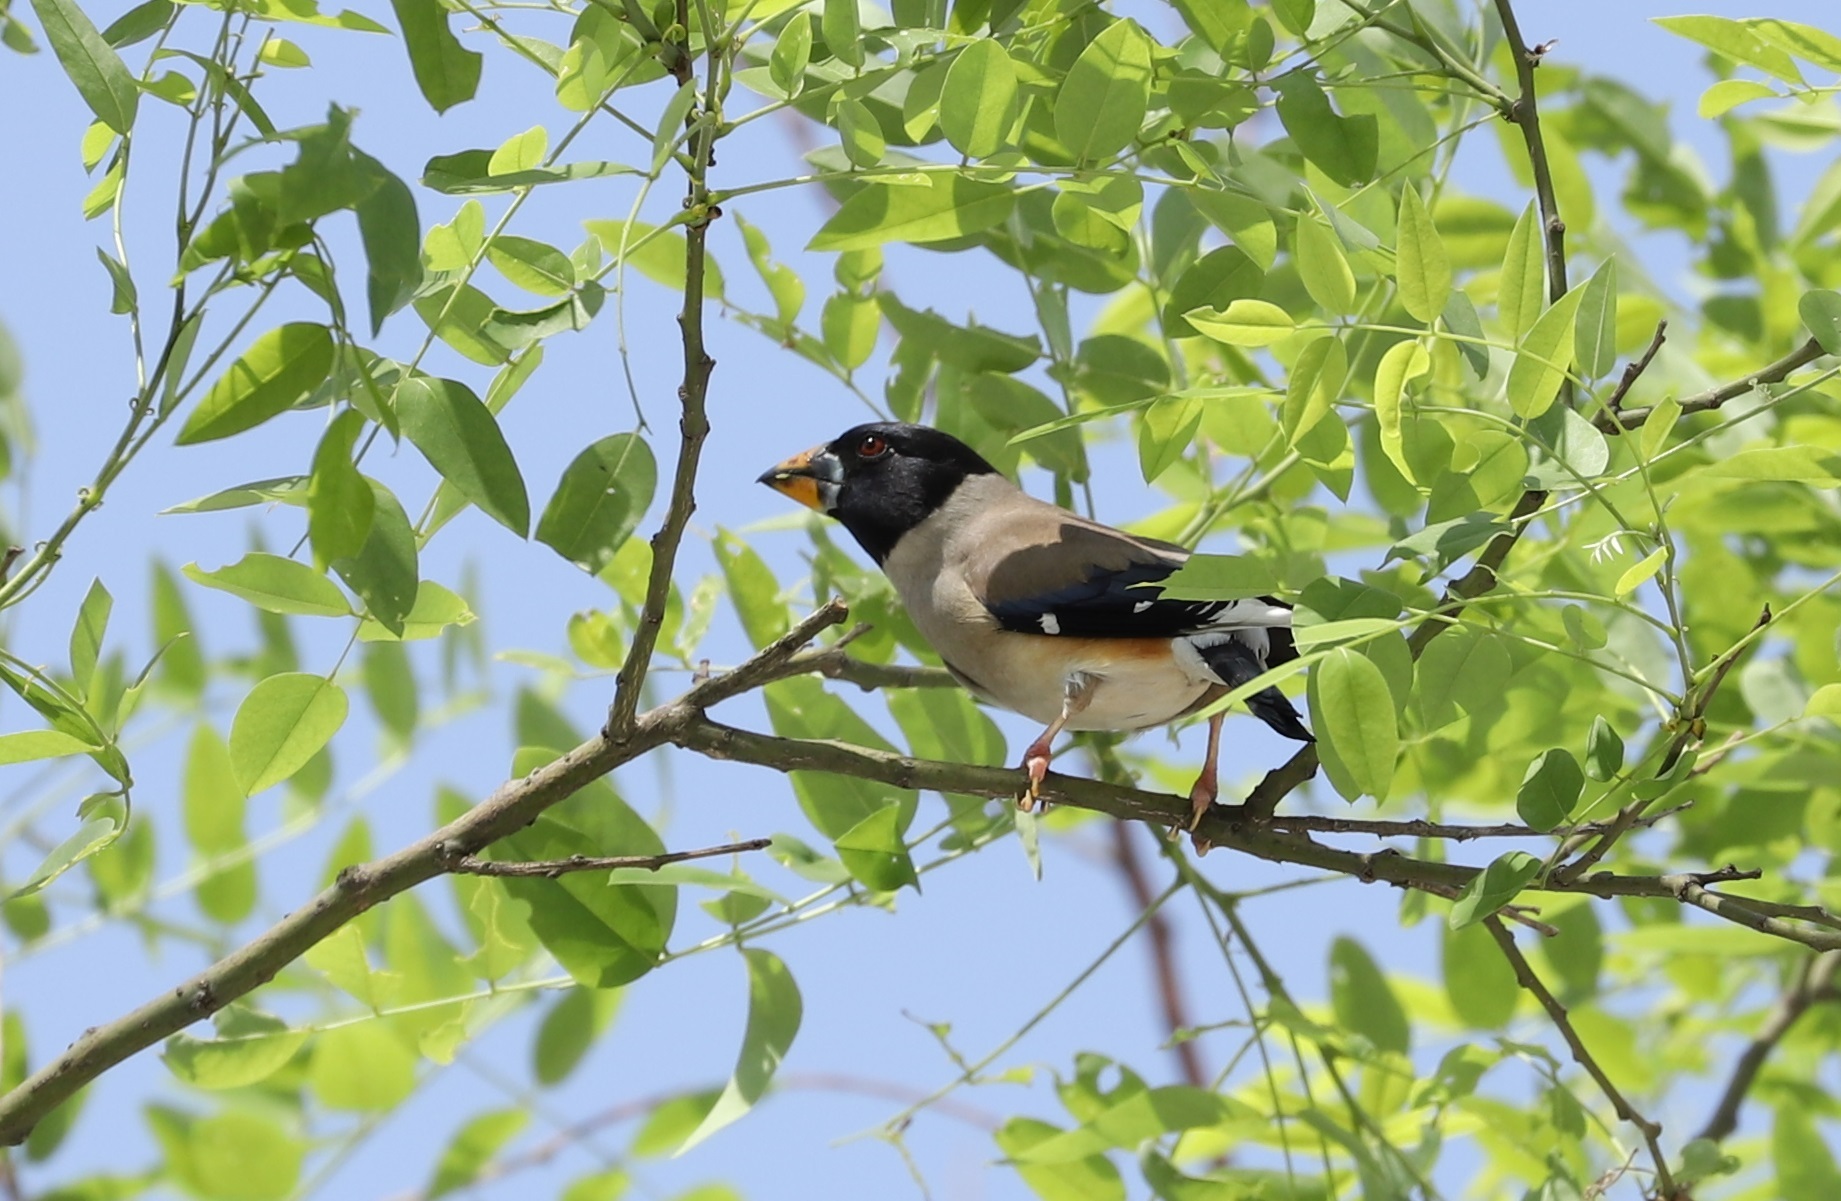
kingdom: Animalia
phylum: Chordata
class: Aves
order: Passeriformes
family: Fringillidae
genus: Eophona
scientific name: Eophona migratoria
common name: Yellow-billed grosbeak
